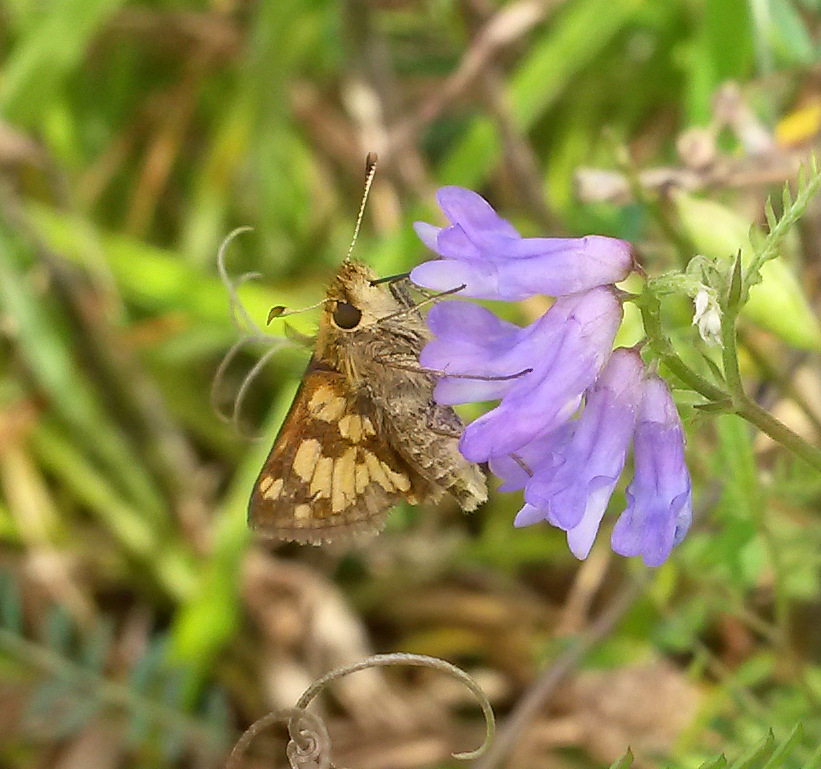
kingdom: Animalia
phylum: Arthropoda
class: Insecta
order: Lepidoptera
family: Hesperiidae
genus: Polites
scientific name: Polites coras
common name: Peck's skipper
